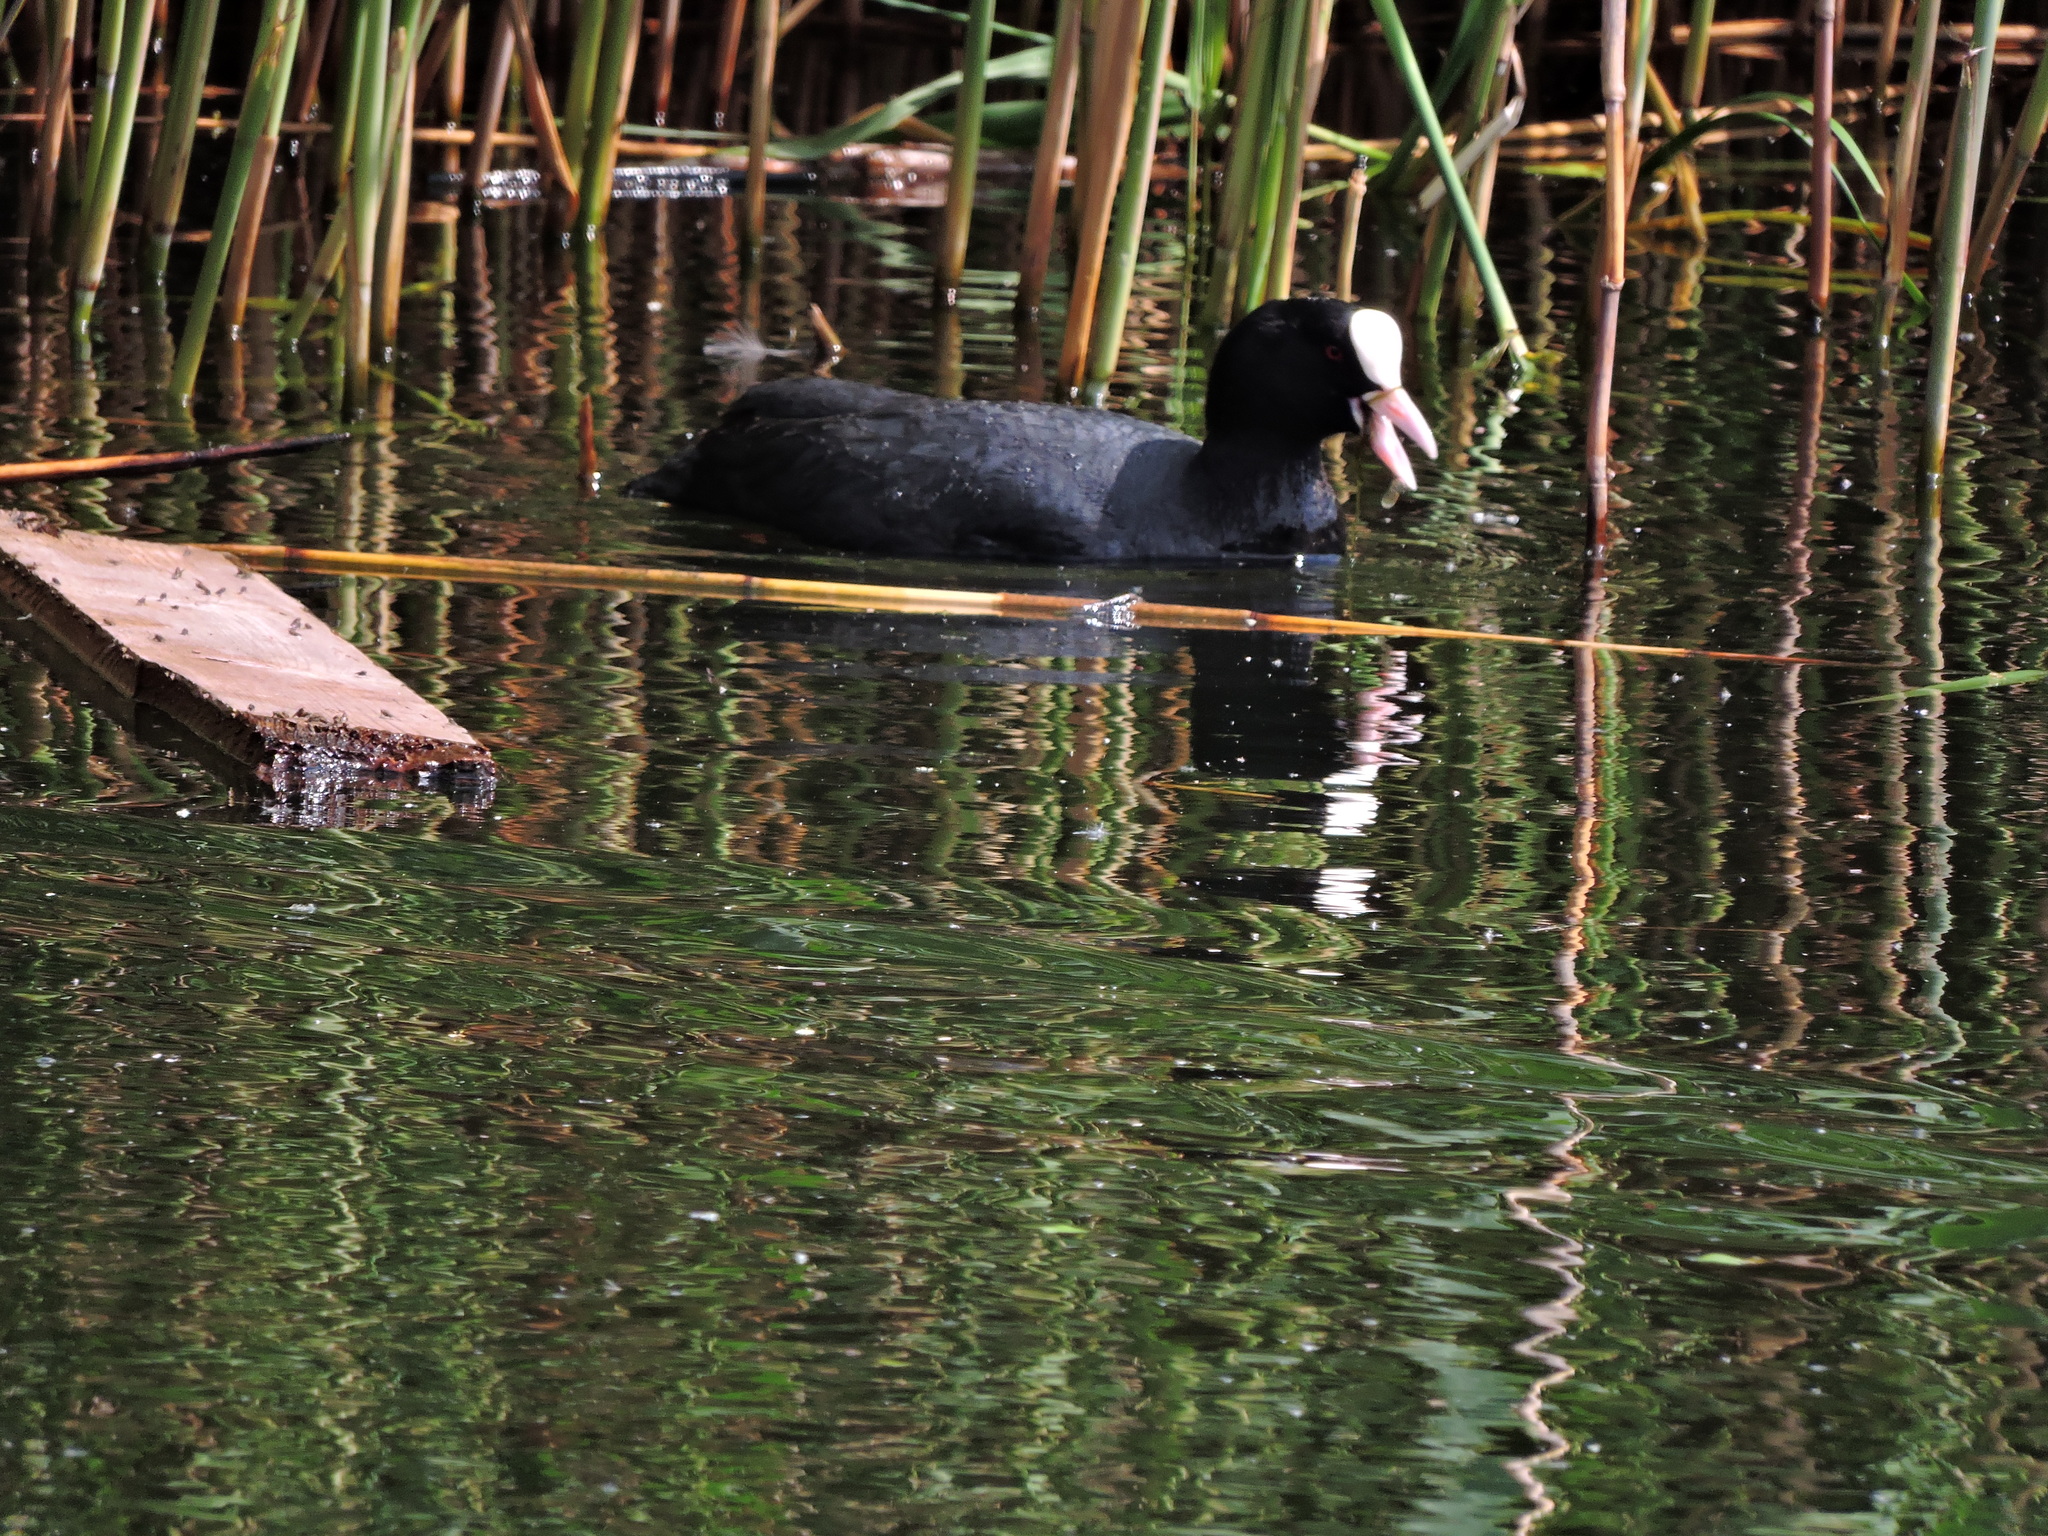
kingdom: Animalia
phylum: Chordata
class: Aves
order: Gruiformes
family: Rallidae
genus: Fulica
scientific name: Fulica atra
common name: Eurasian coot
